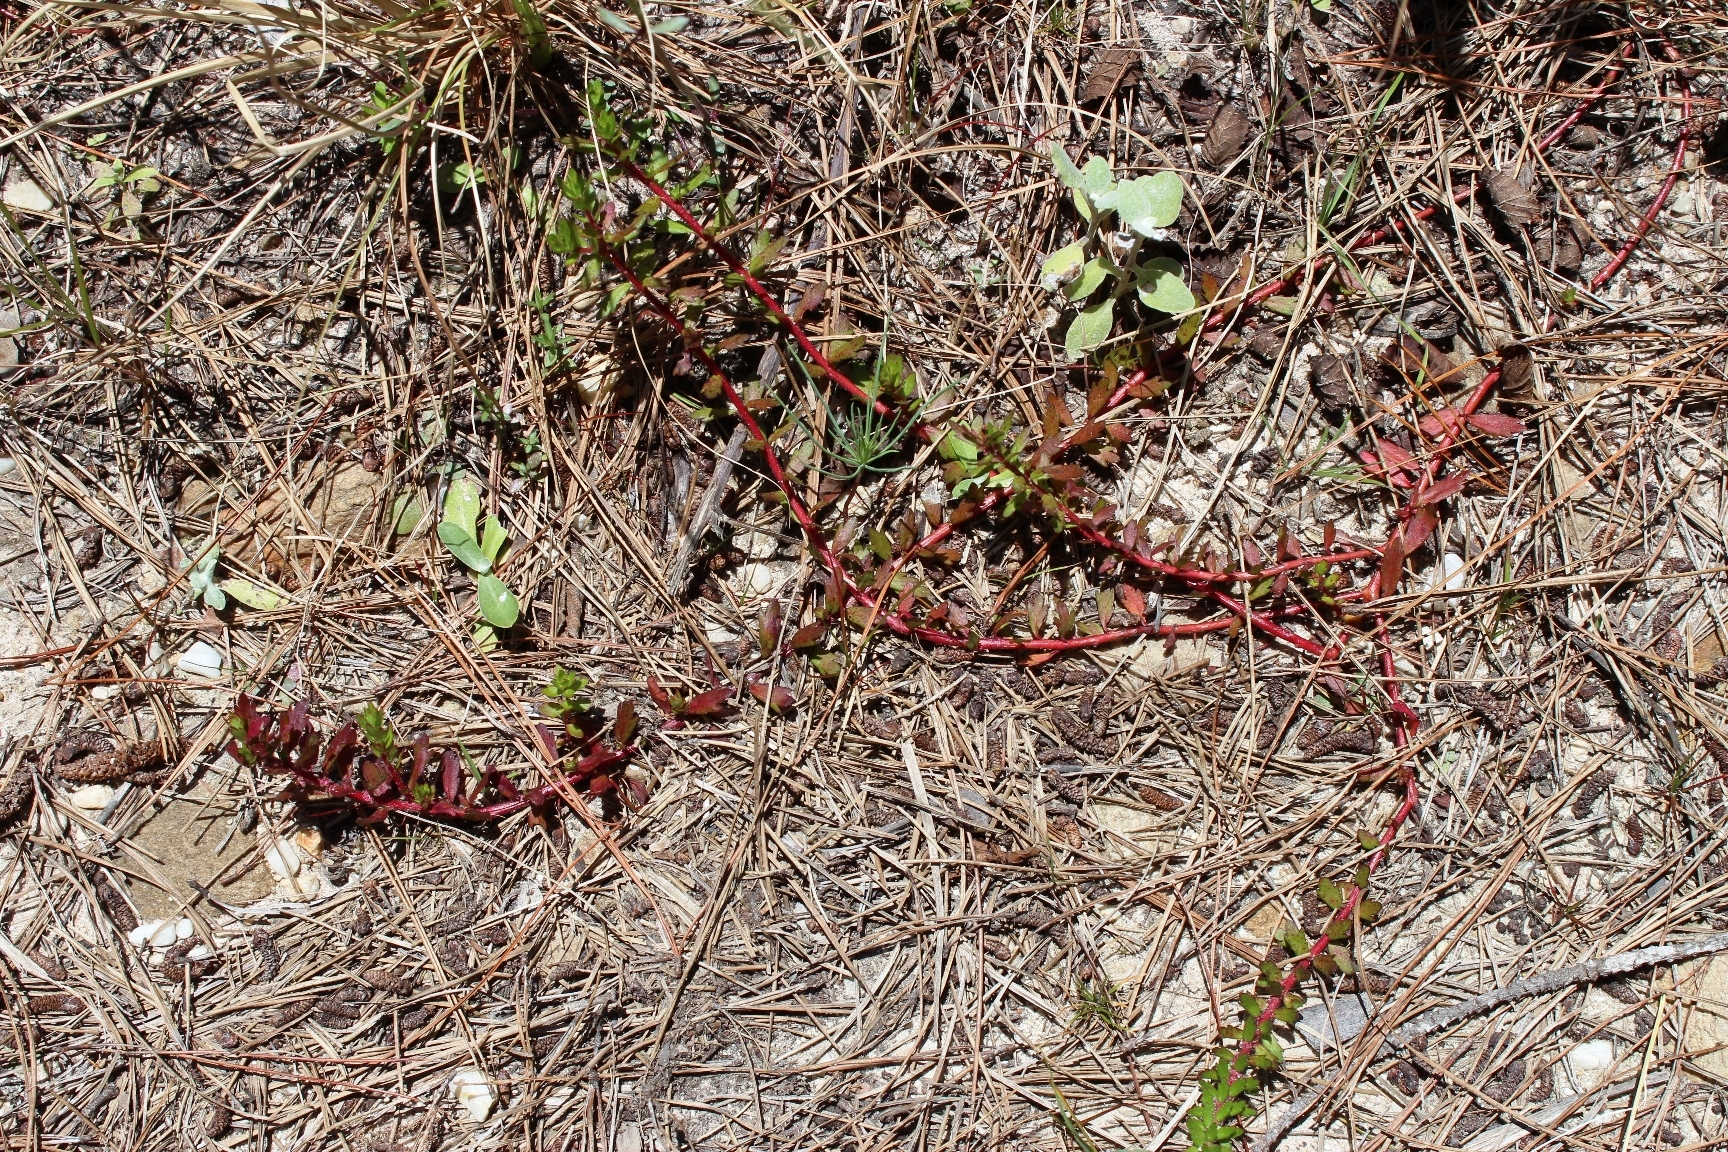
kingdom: Plantae
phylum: Tracheophyta
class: Magnoliopsida
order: Saxifragales
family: Haloragaceae
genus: Laurembergia
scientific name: Laurembergia repens
